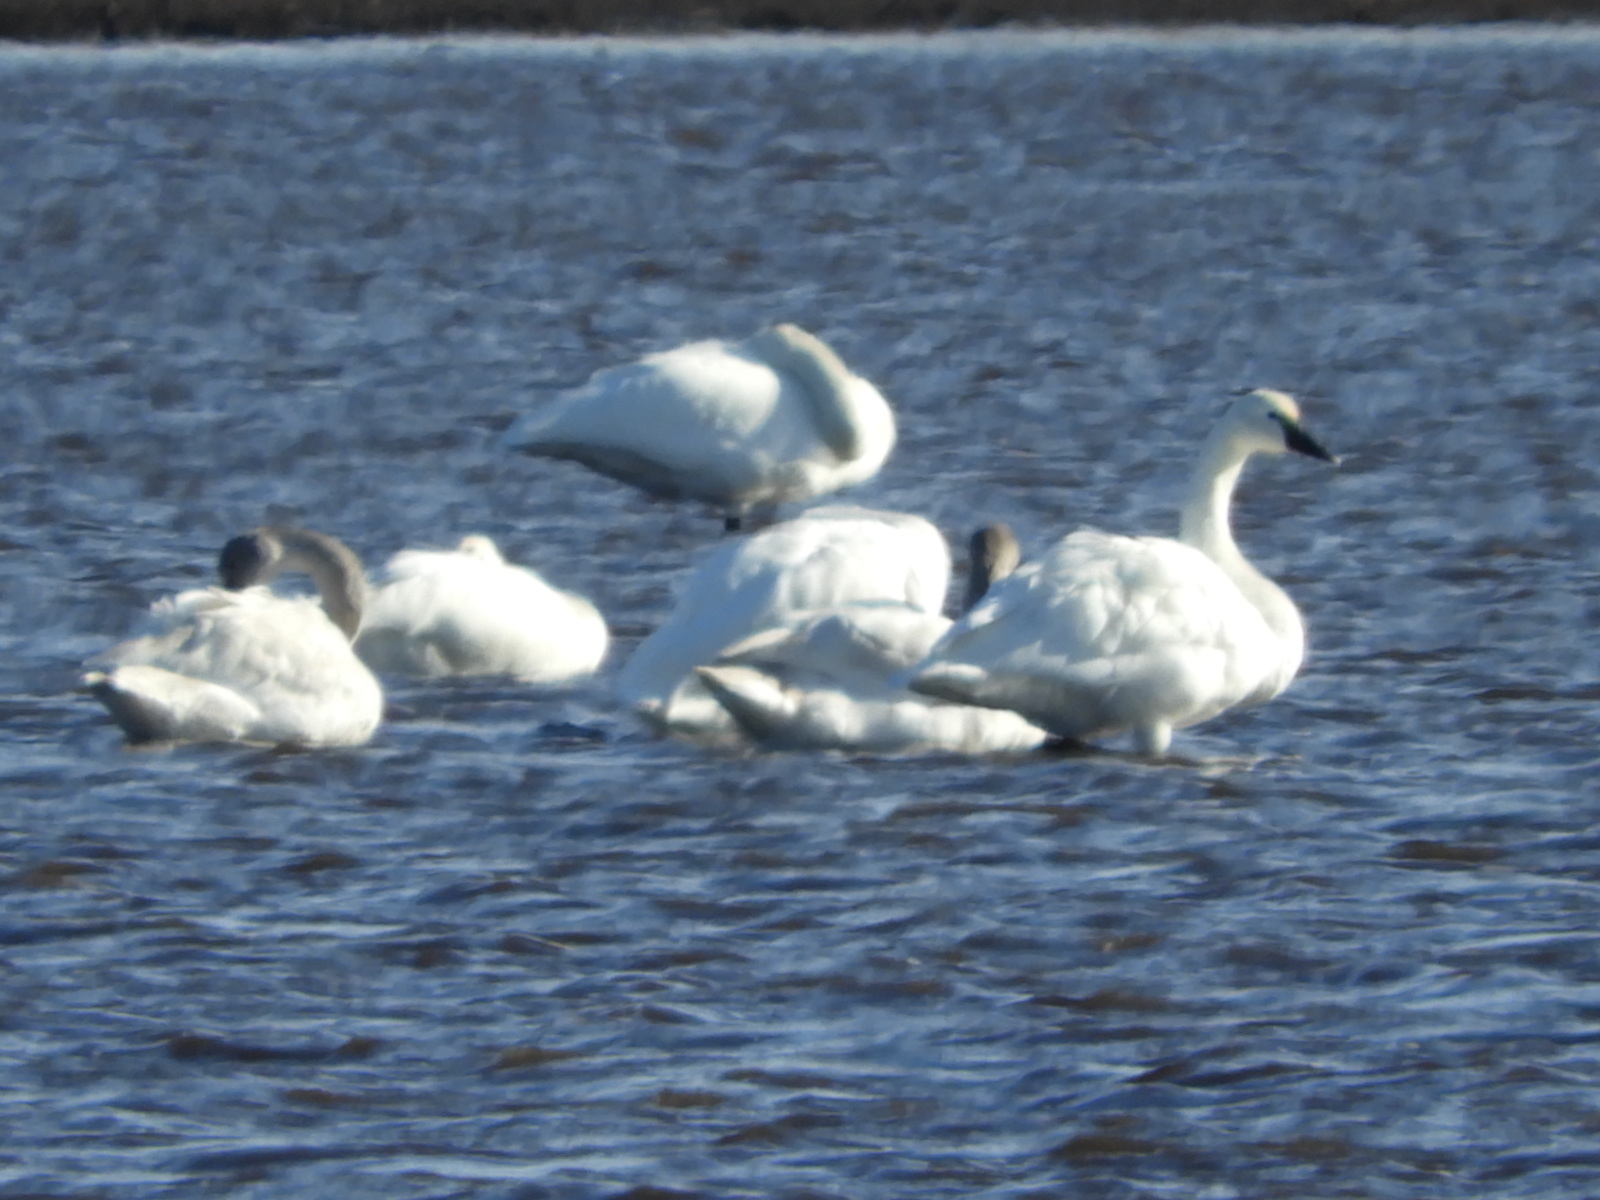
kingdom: Animalia
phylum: Chordata
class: Aves
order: Anseriformes
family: Anatidae
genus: Cygnus
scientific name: Cygnus columbianus
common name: Tundra swan
